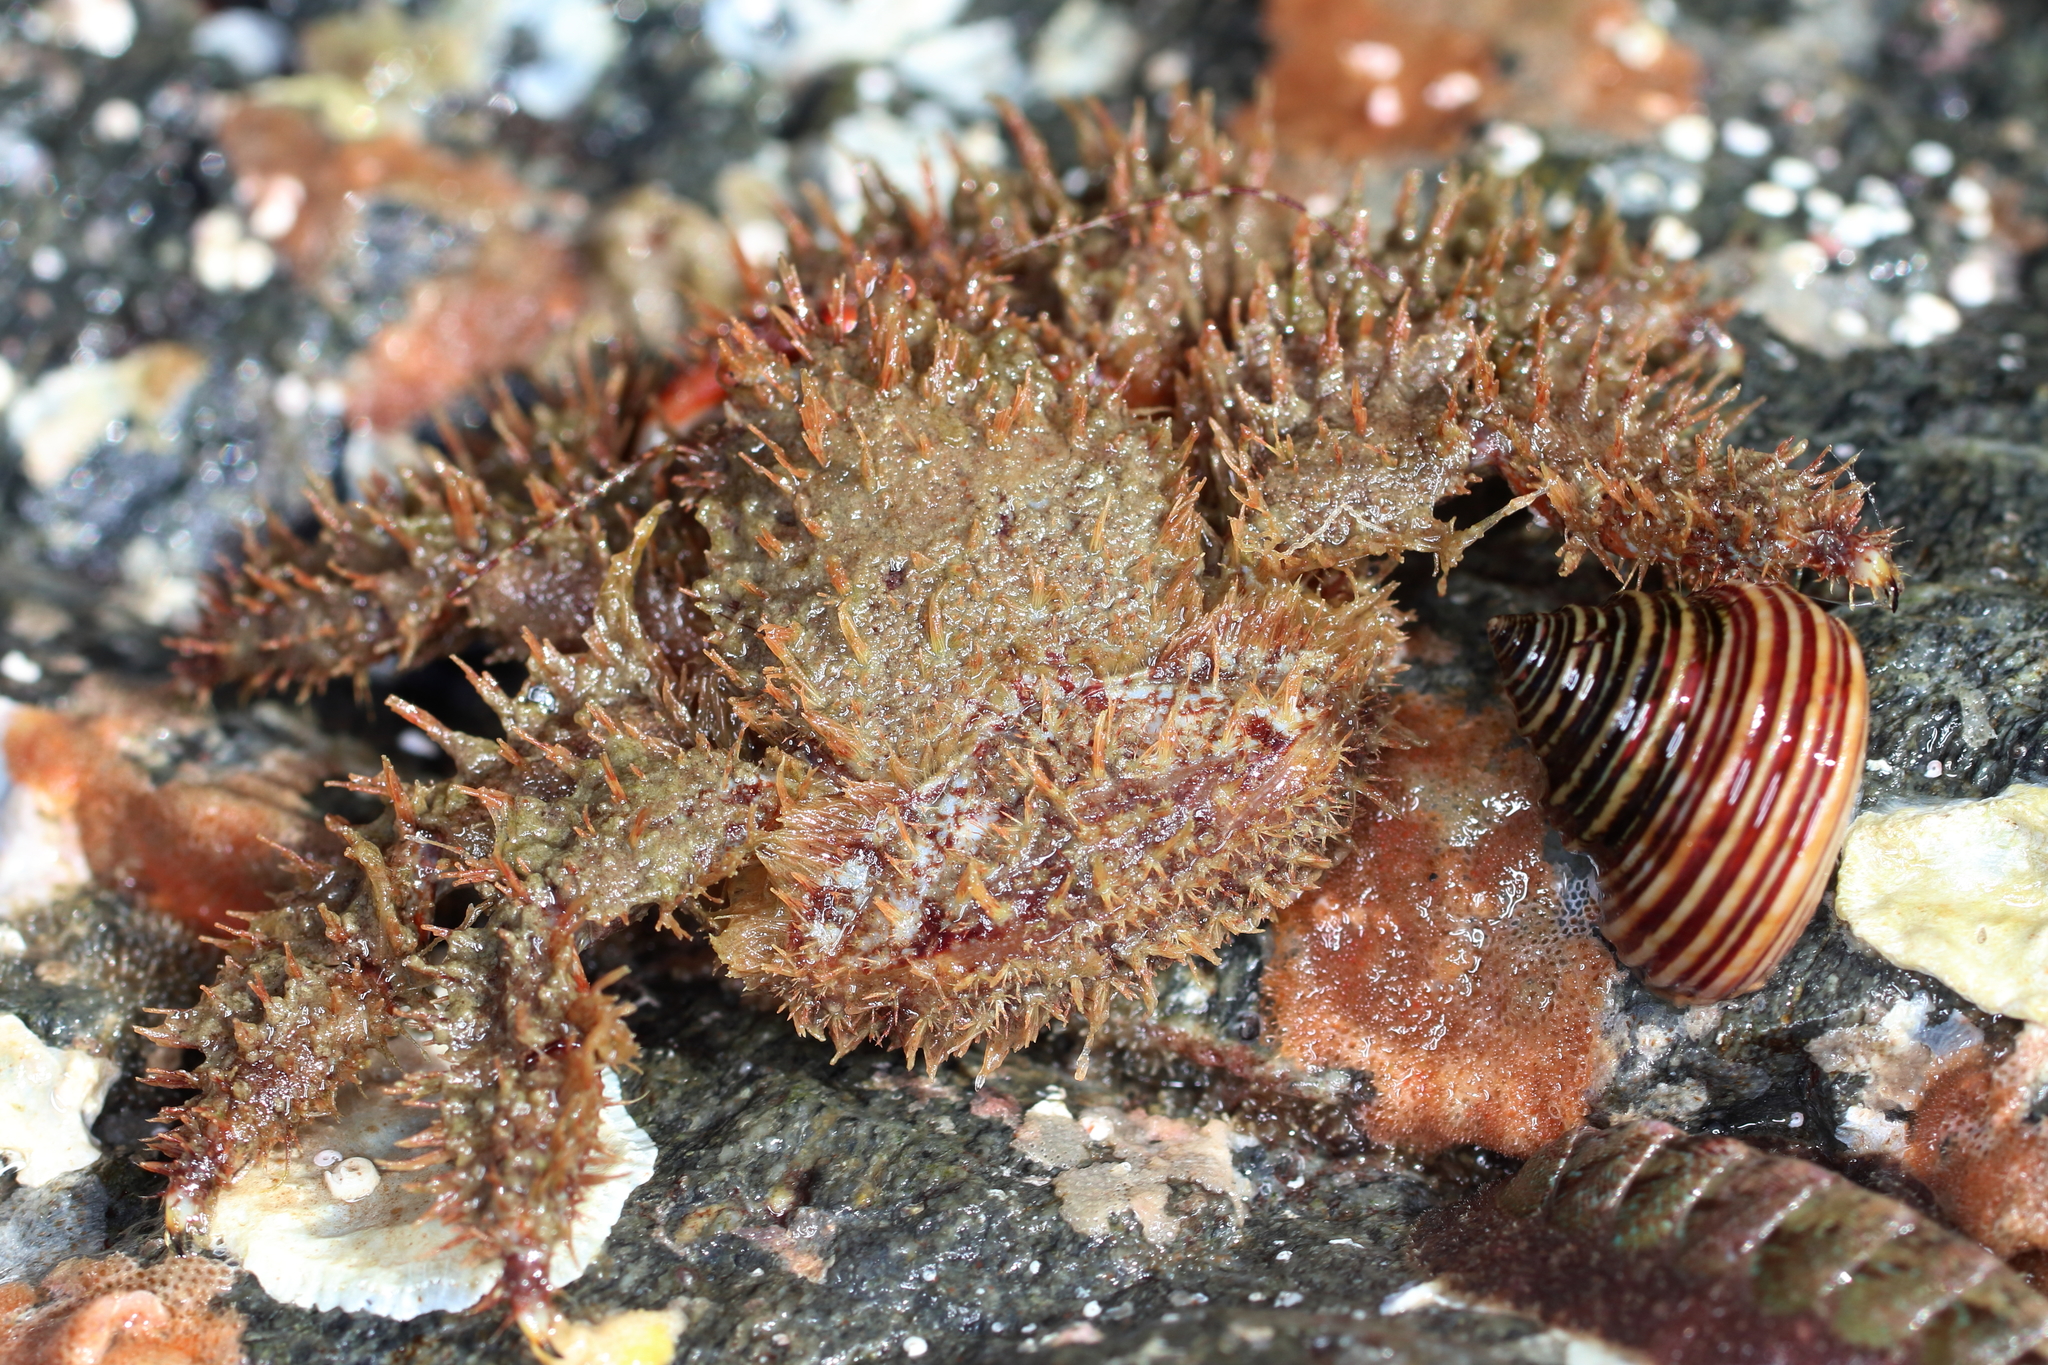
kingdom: Animalia
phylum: Arthropoda
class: Malacostraca
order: Decapoda
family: Hapalogastridae
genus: Hapalogaster
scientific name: Hapalogaster mertensii
